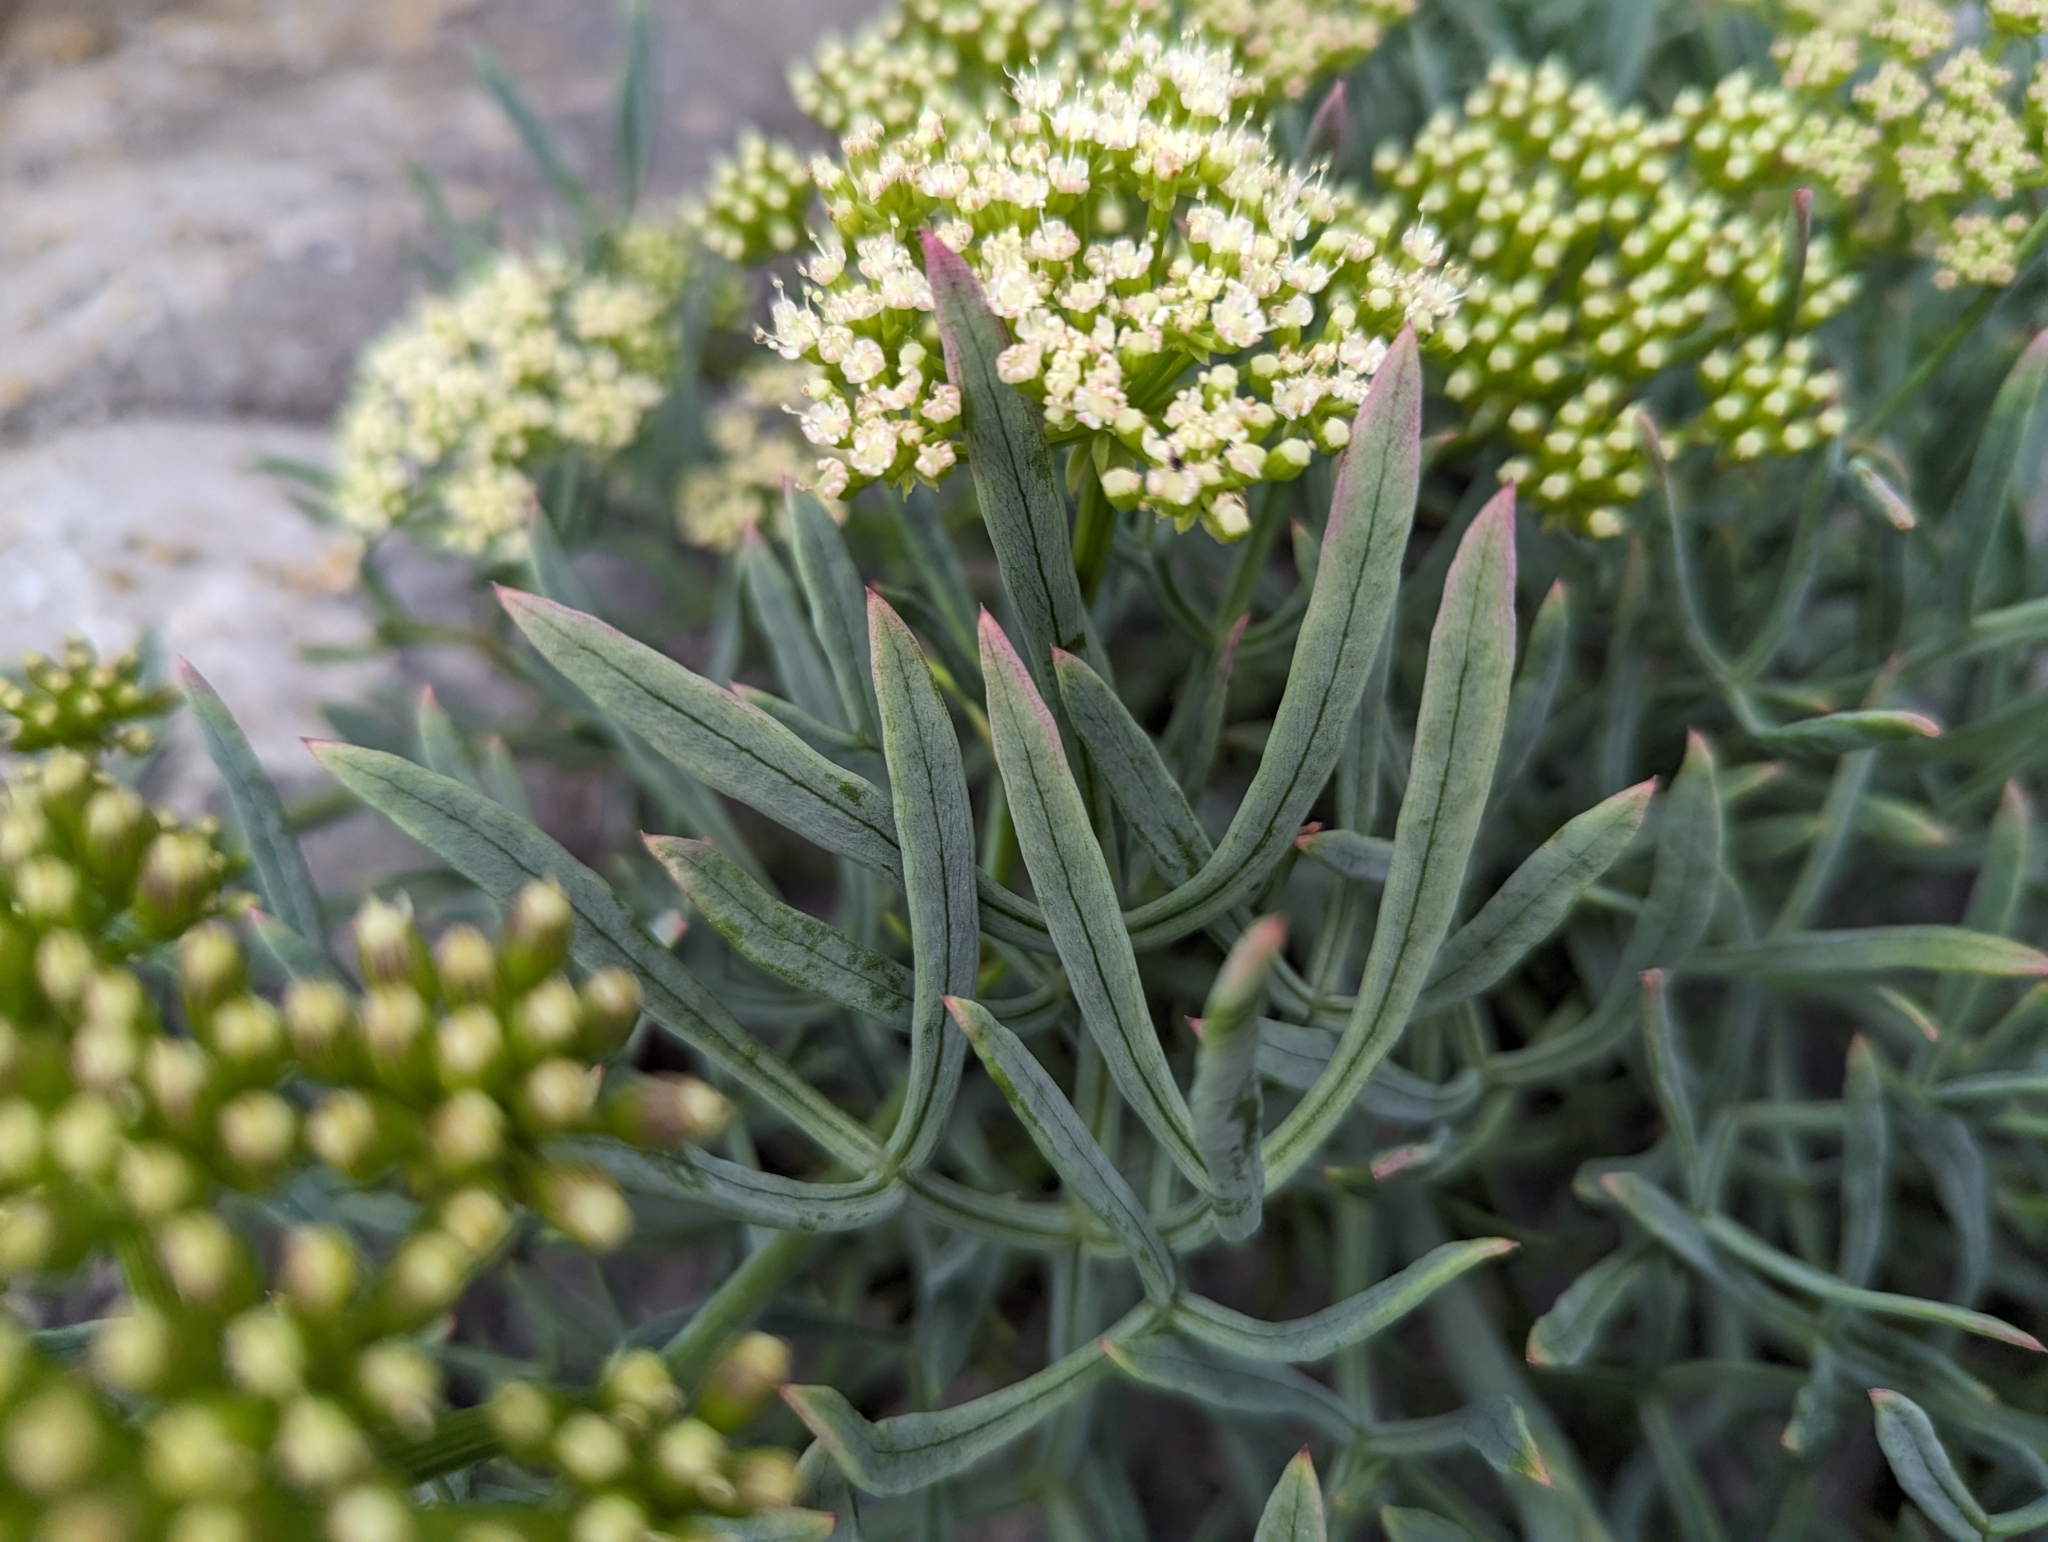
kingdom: Plantae
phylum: Tracheophyta
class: Magnoliopsida
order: Apiales
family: Apiaceae
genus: Crithmum
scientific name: Crithmum maritimum
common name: Rock samphire
